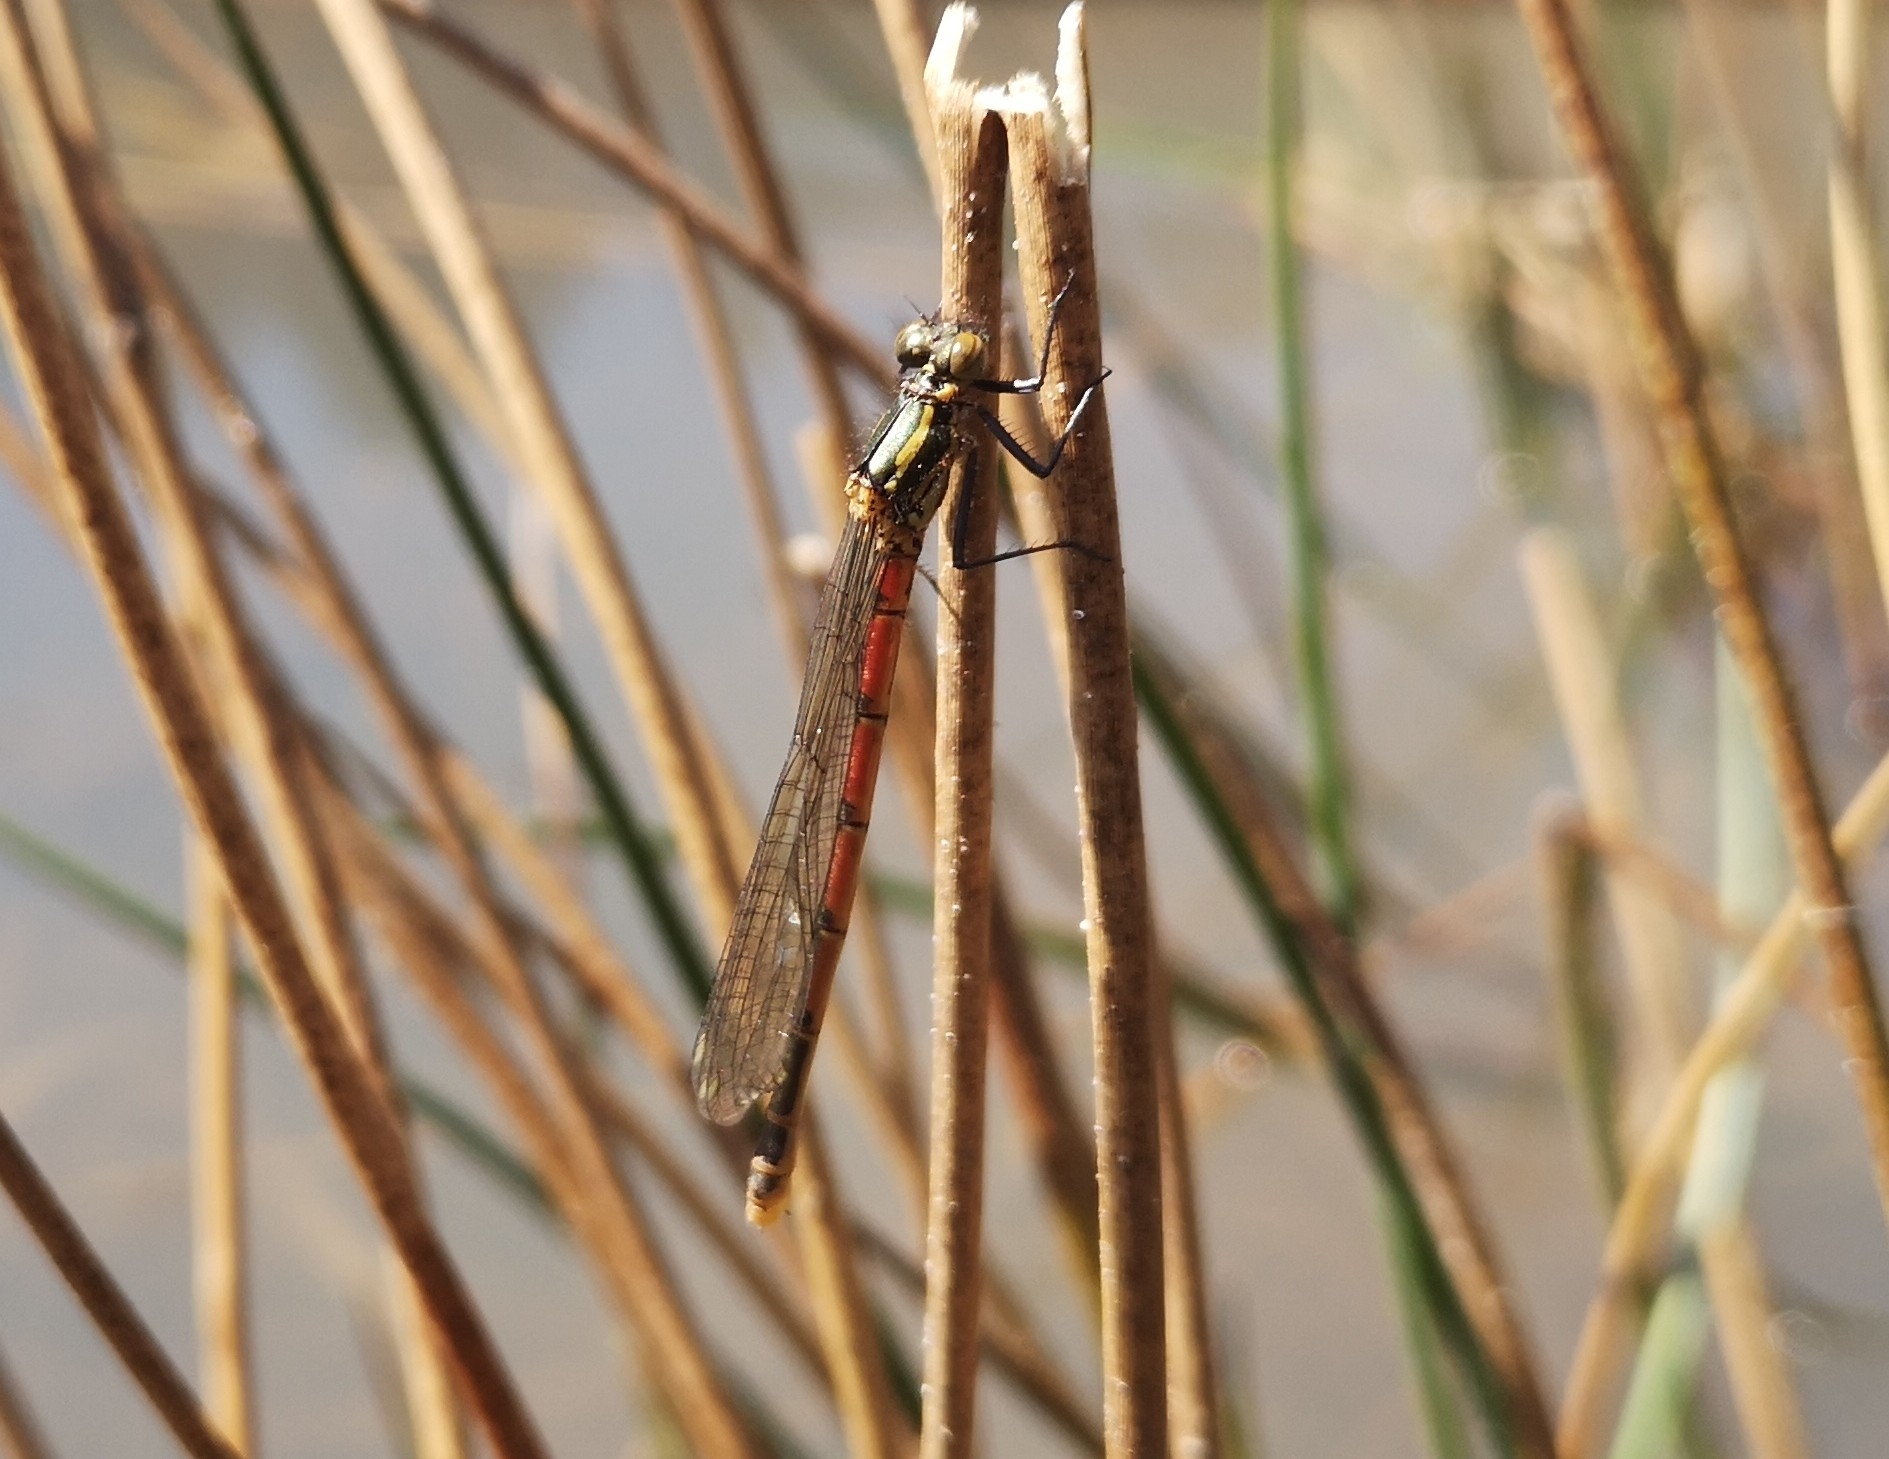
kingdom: Animalia
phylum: Arthropoda
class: Insecta
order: Odonata
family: Coenagrionidae
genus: Pyrrhosoma
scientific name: Pyrrhosoma nymphula
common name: Large red damsel
